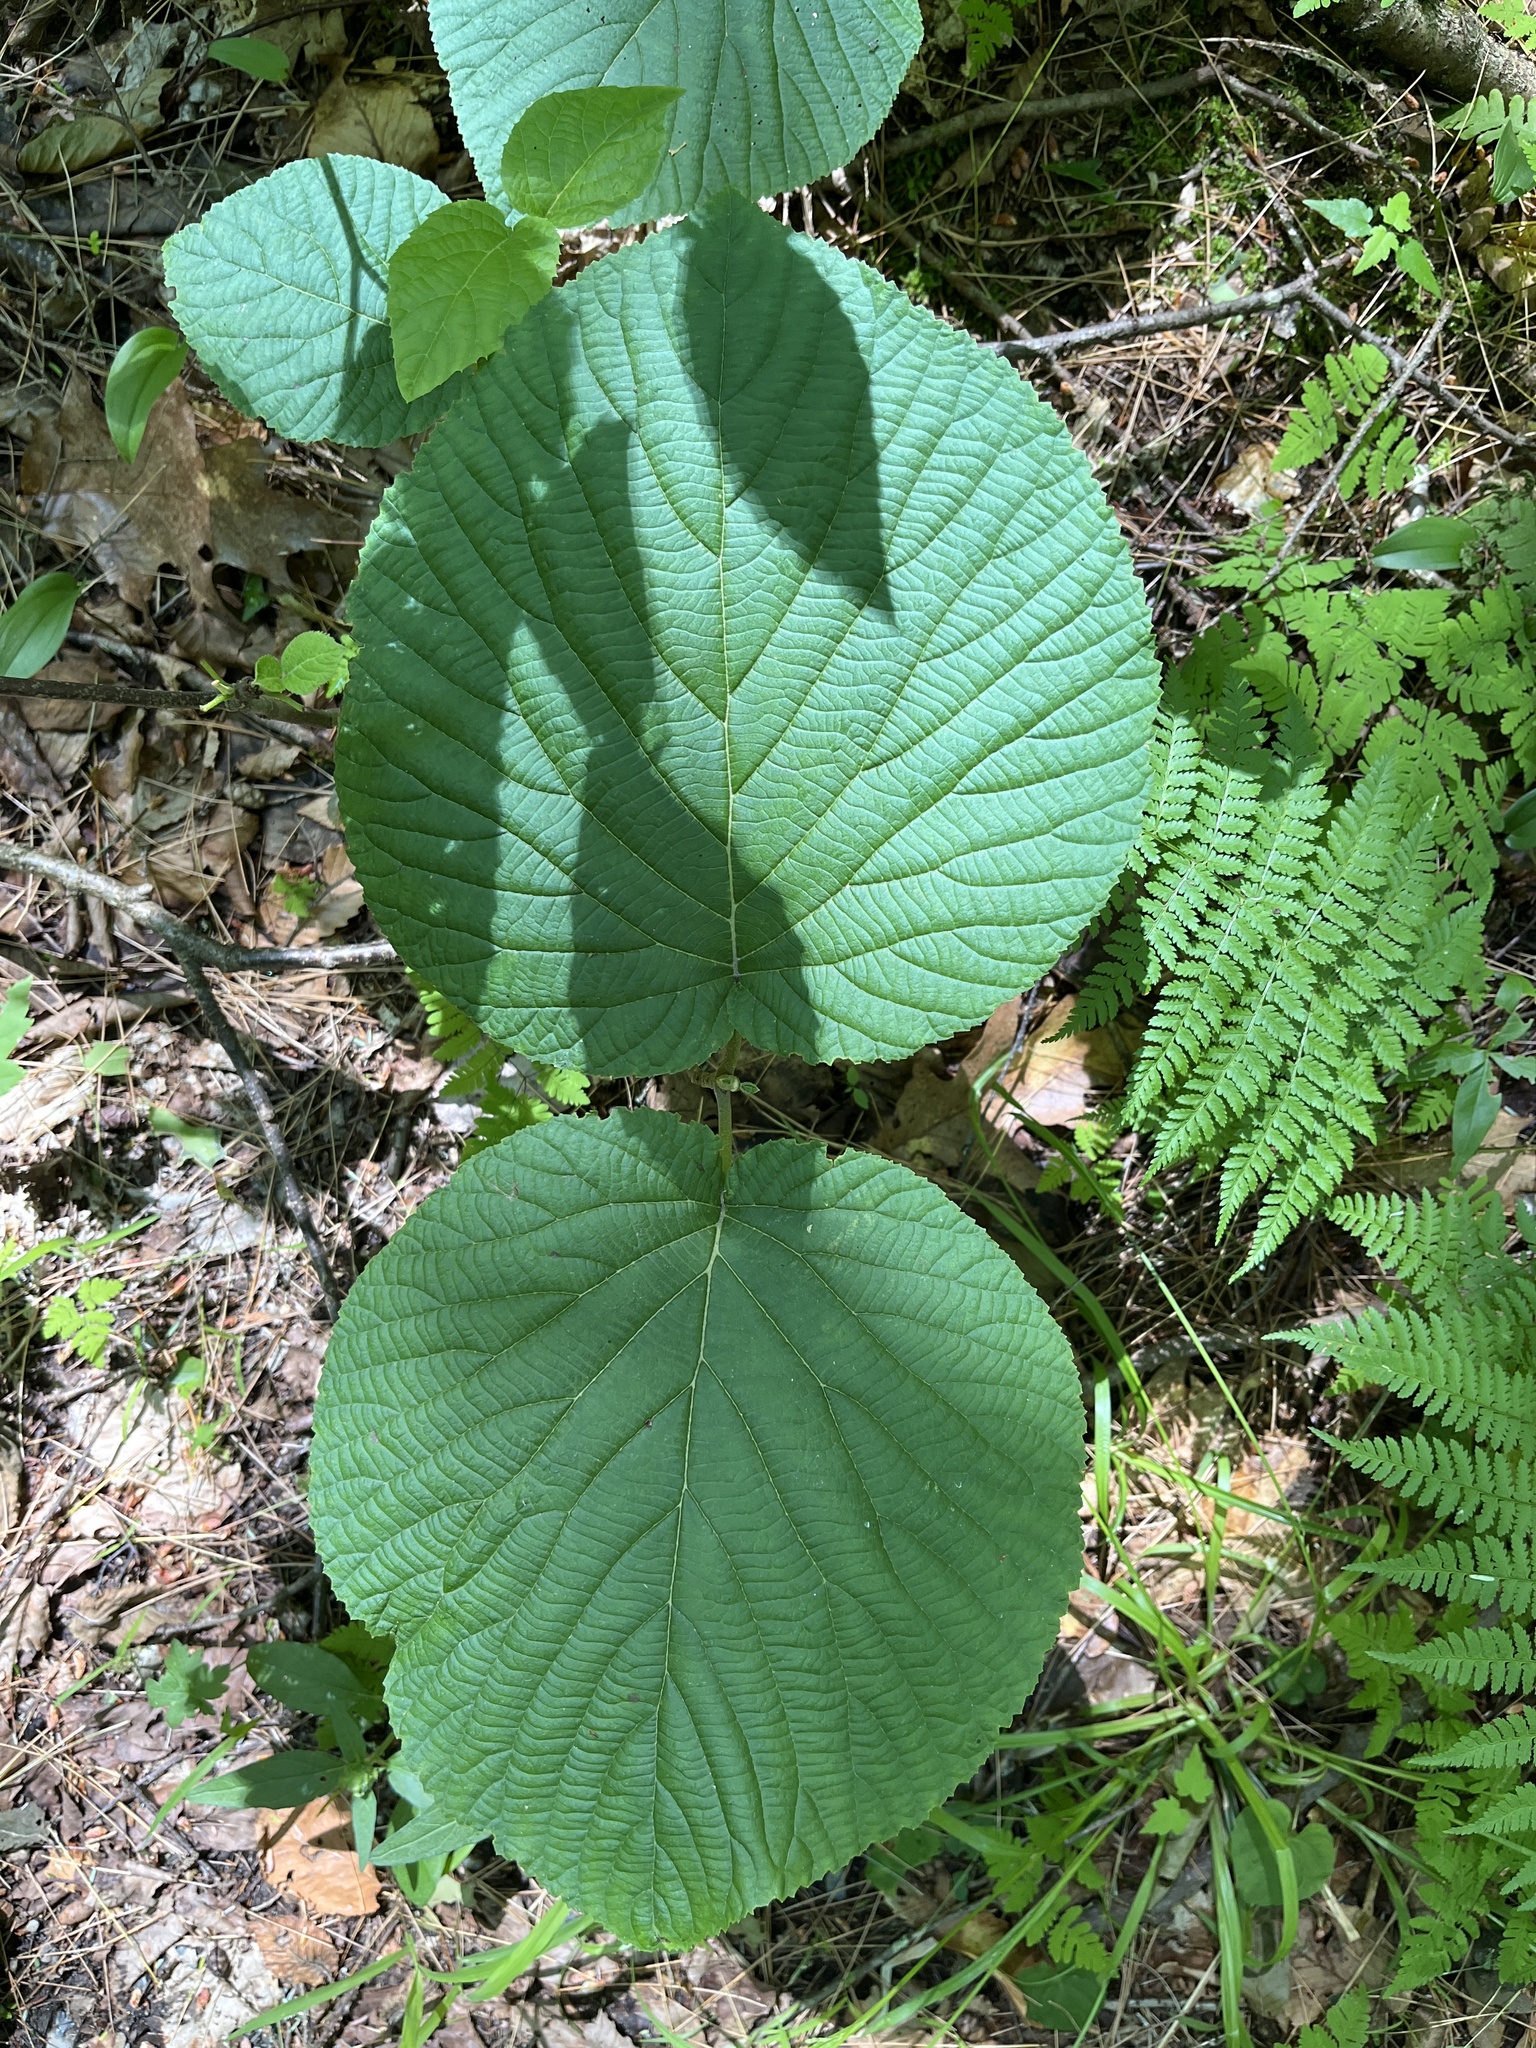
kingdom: Plantae
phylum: Tracheophyta
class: Magnoliopsida
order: Dipsacales
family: Viburnaceae
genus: Viburnum
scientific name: Viburnum lantanoides
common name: Hobblebush
